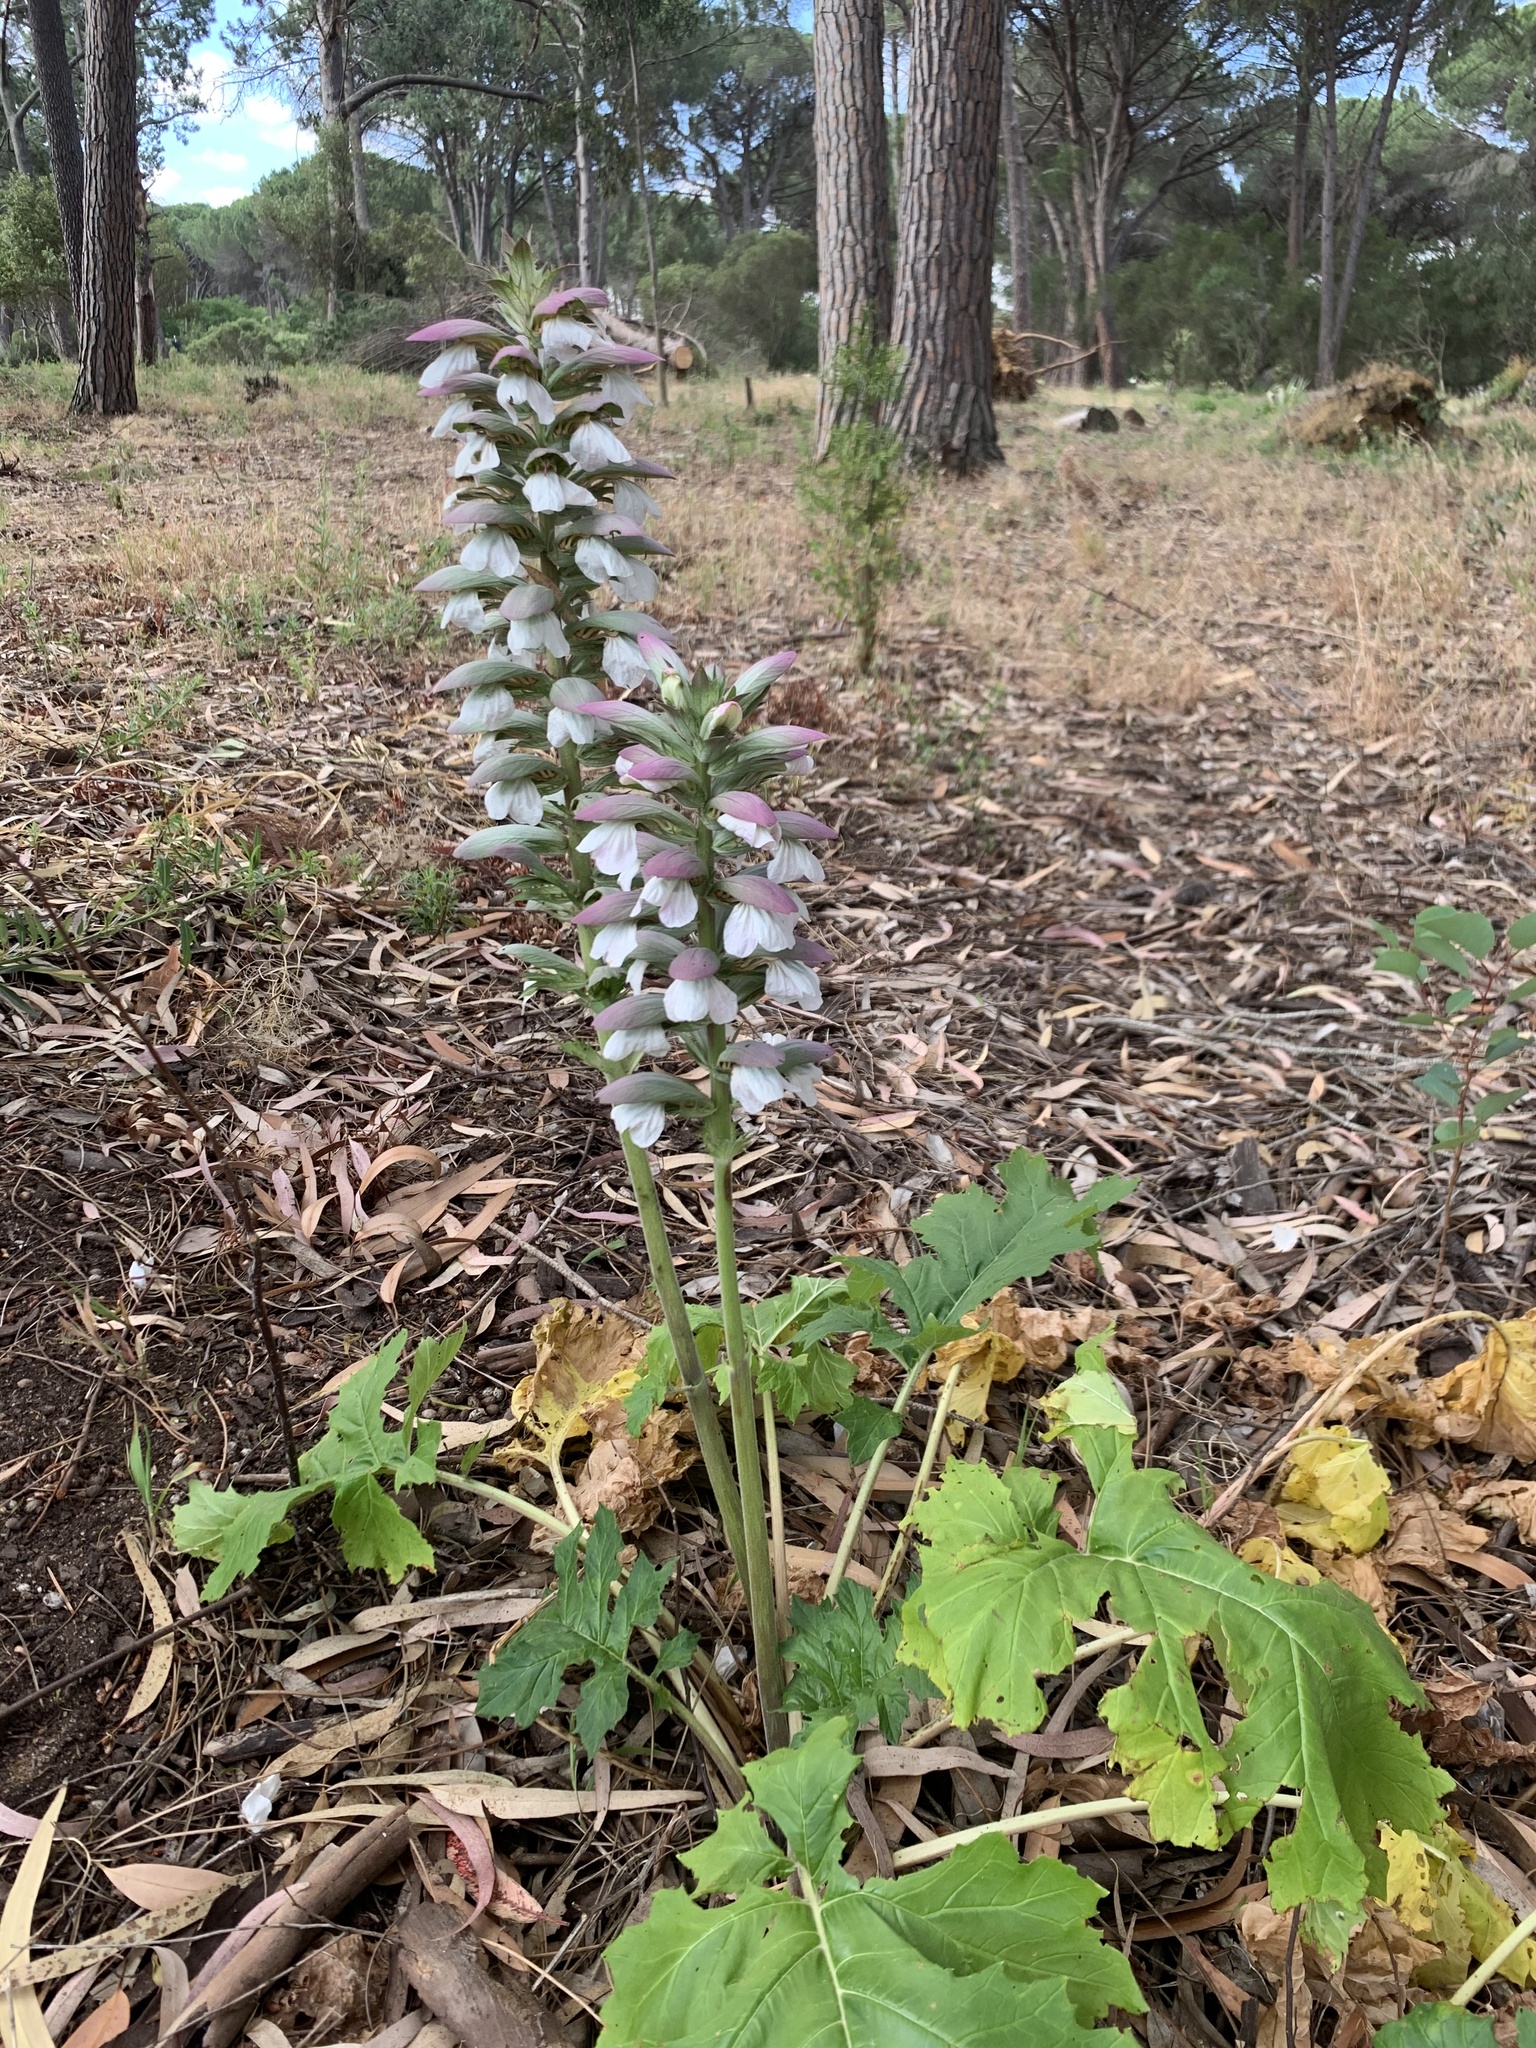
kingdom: Plantae
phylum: Tracheophyta
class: Magnoliopsida
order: Lamiales
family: Acanthaceae
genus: Acanthus
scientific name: Acanthus mollis
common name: Bear's-breech
